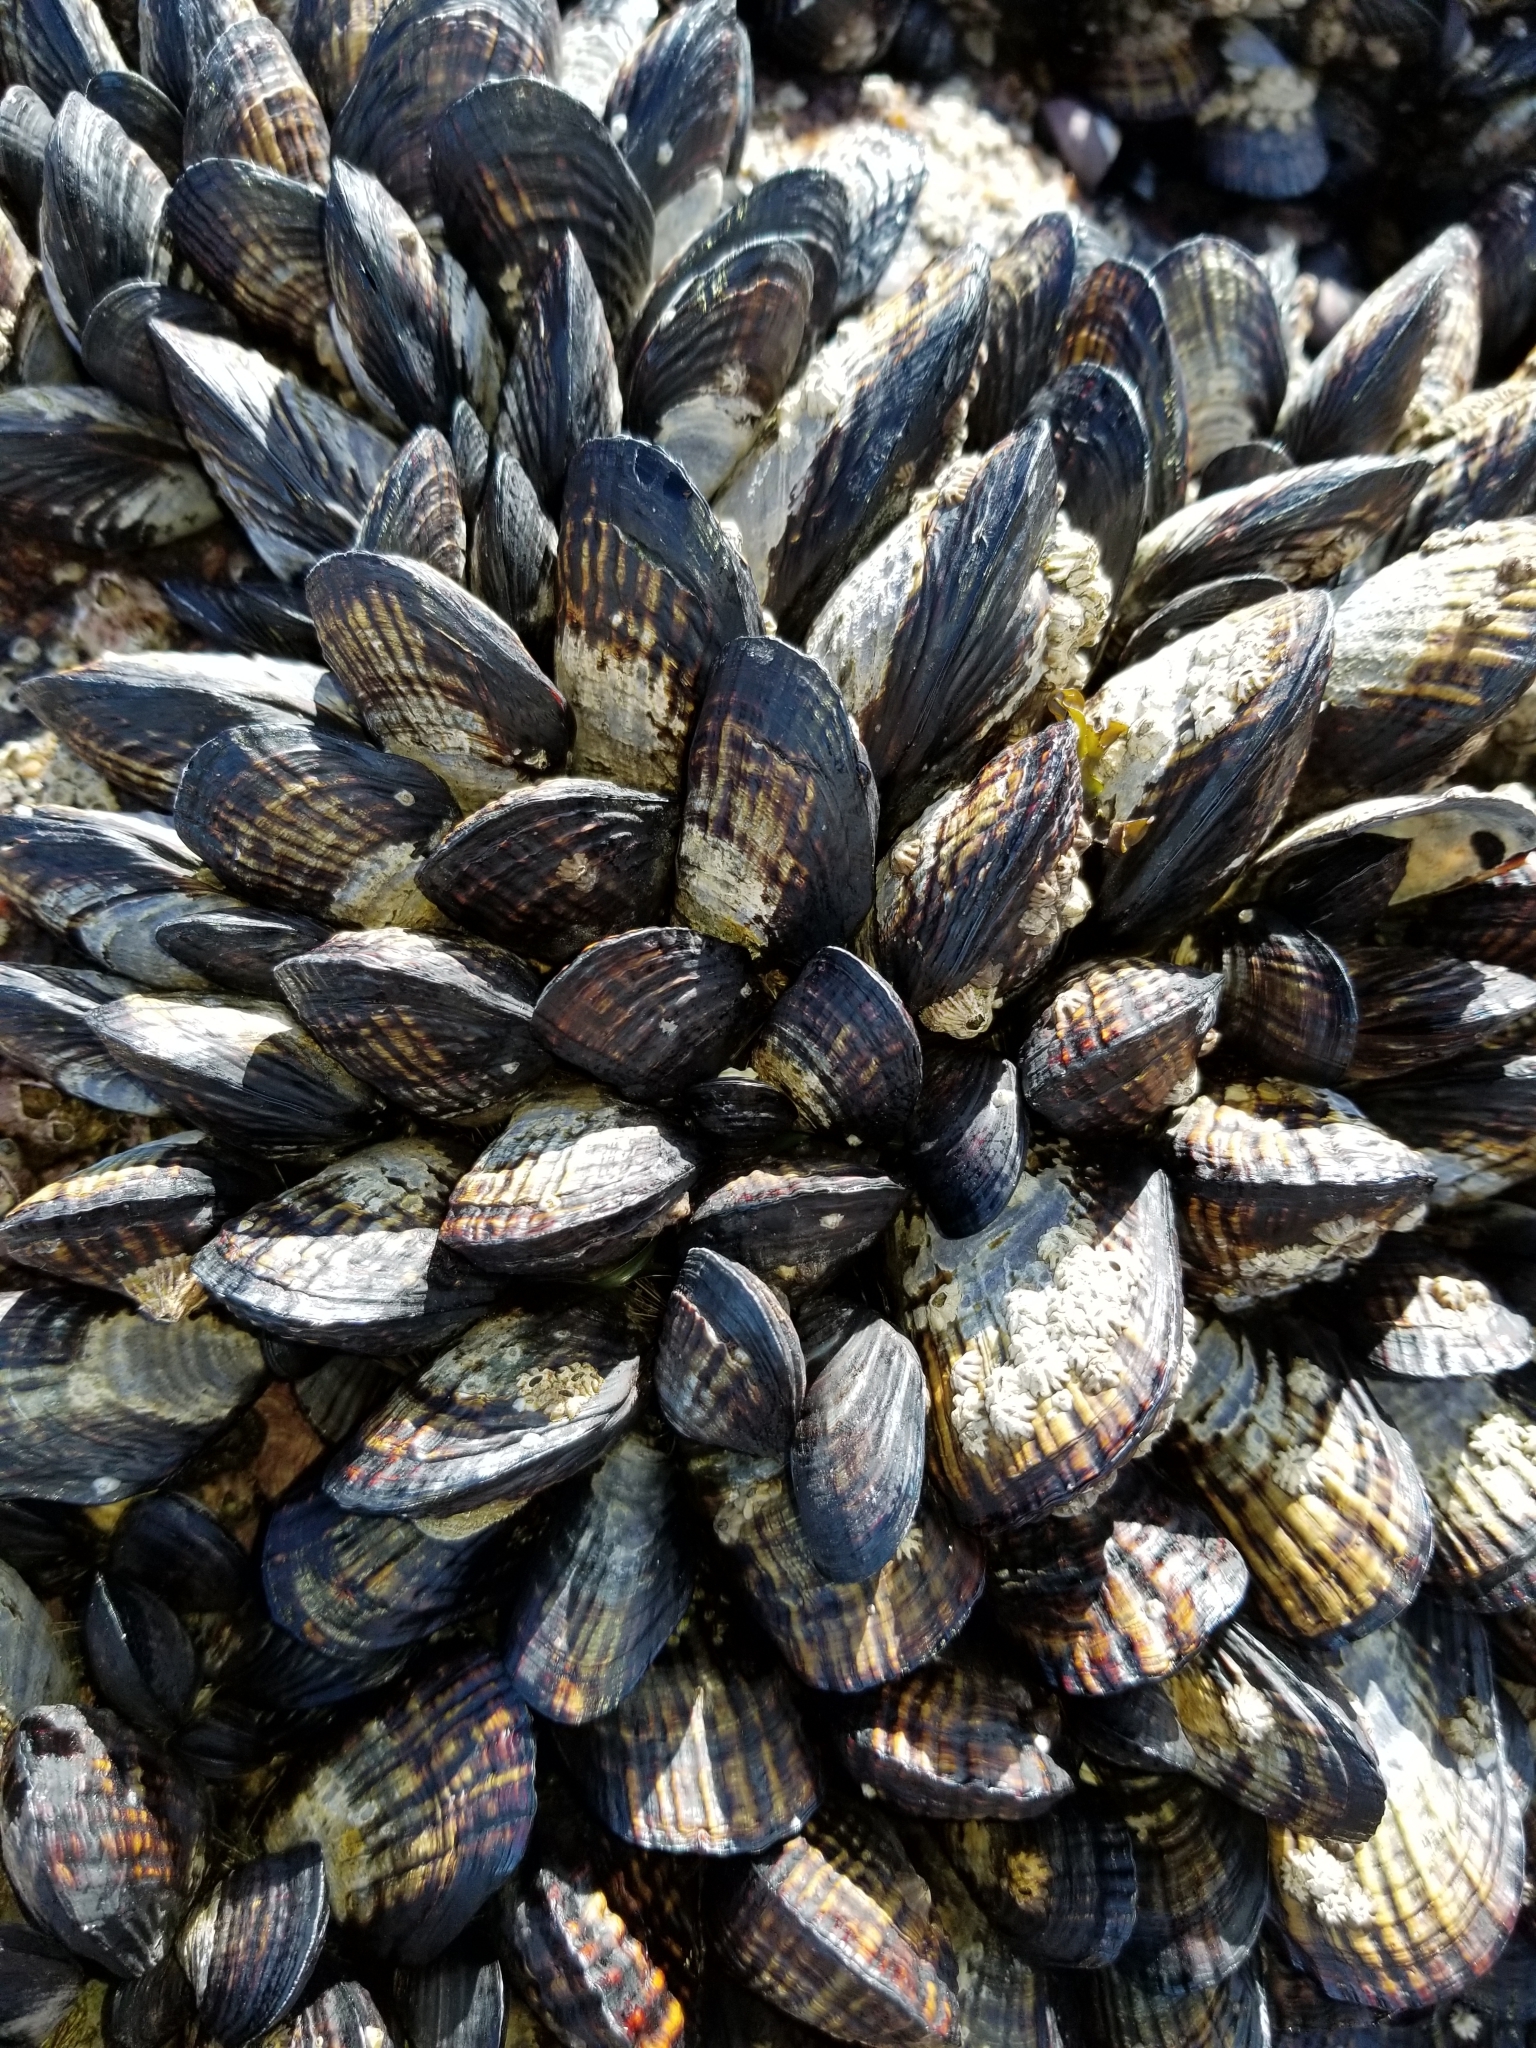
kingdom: Animalia
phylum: Mollusca
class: Bivalvia
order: Mytilida
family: Mytilidae
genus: Mytilus
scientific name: Mytilus californianus
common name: California mussel
